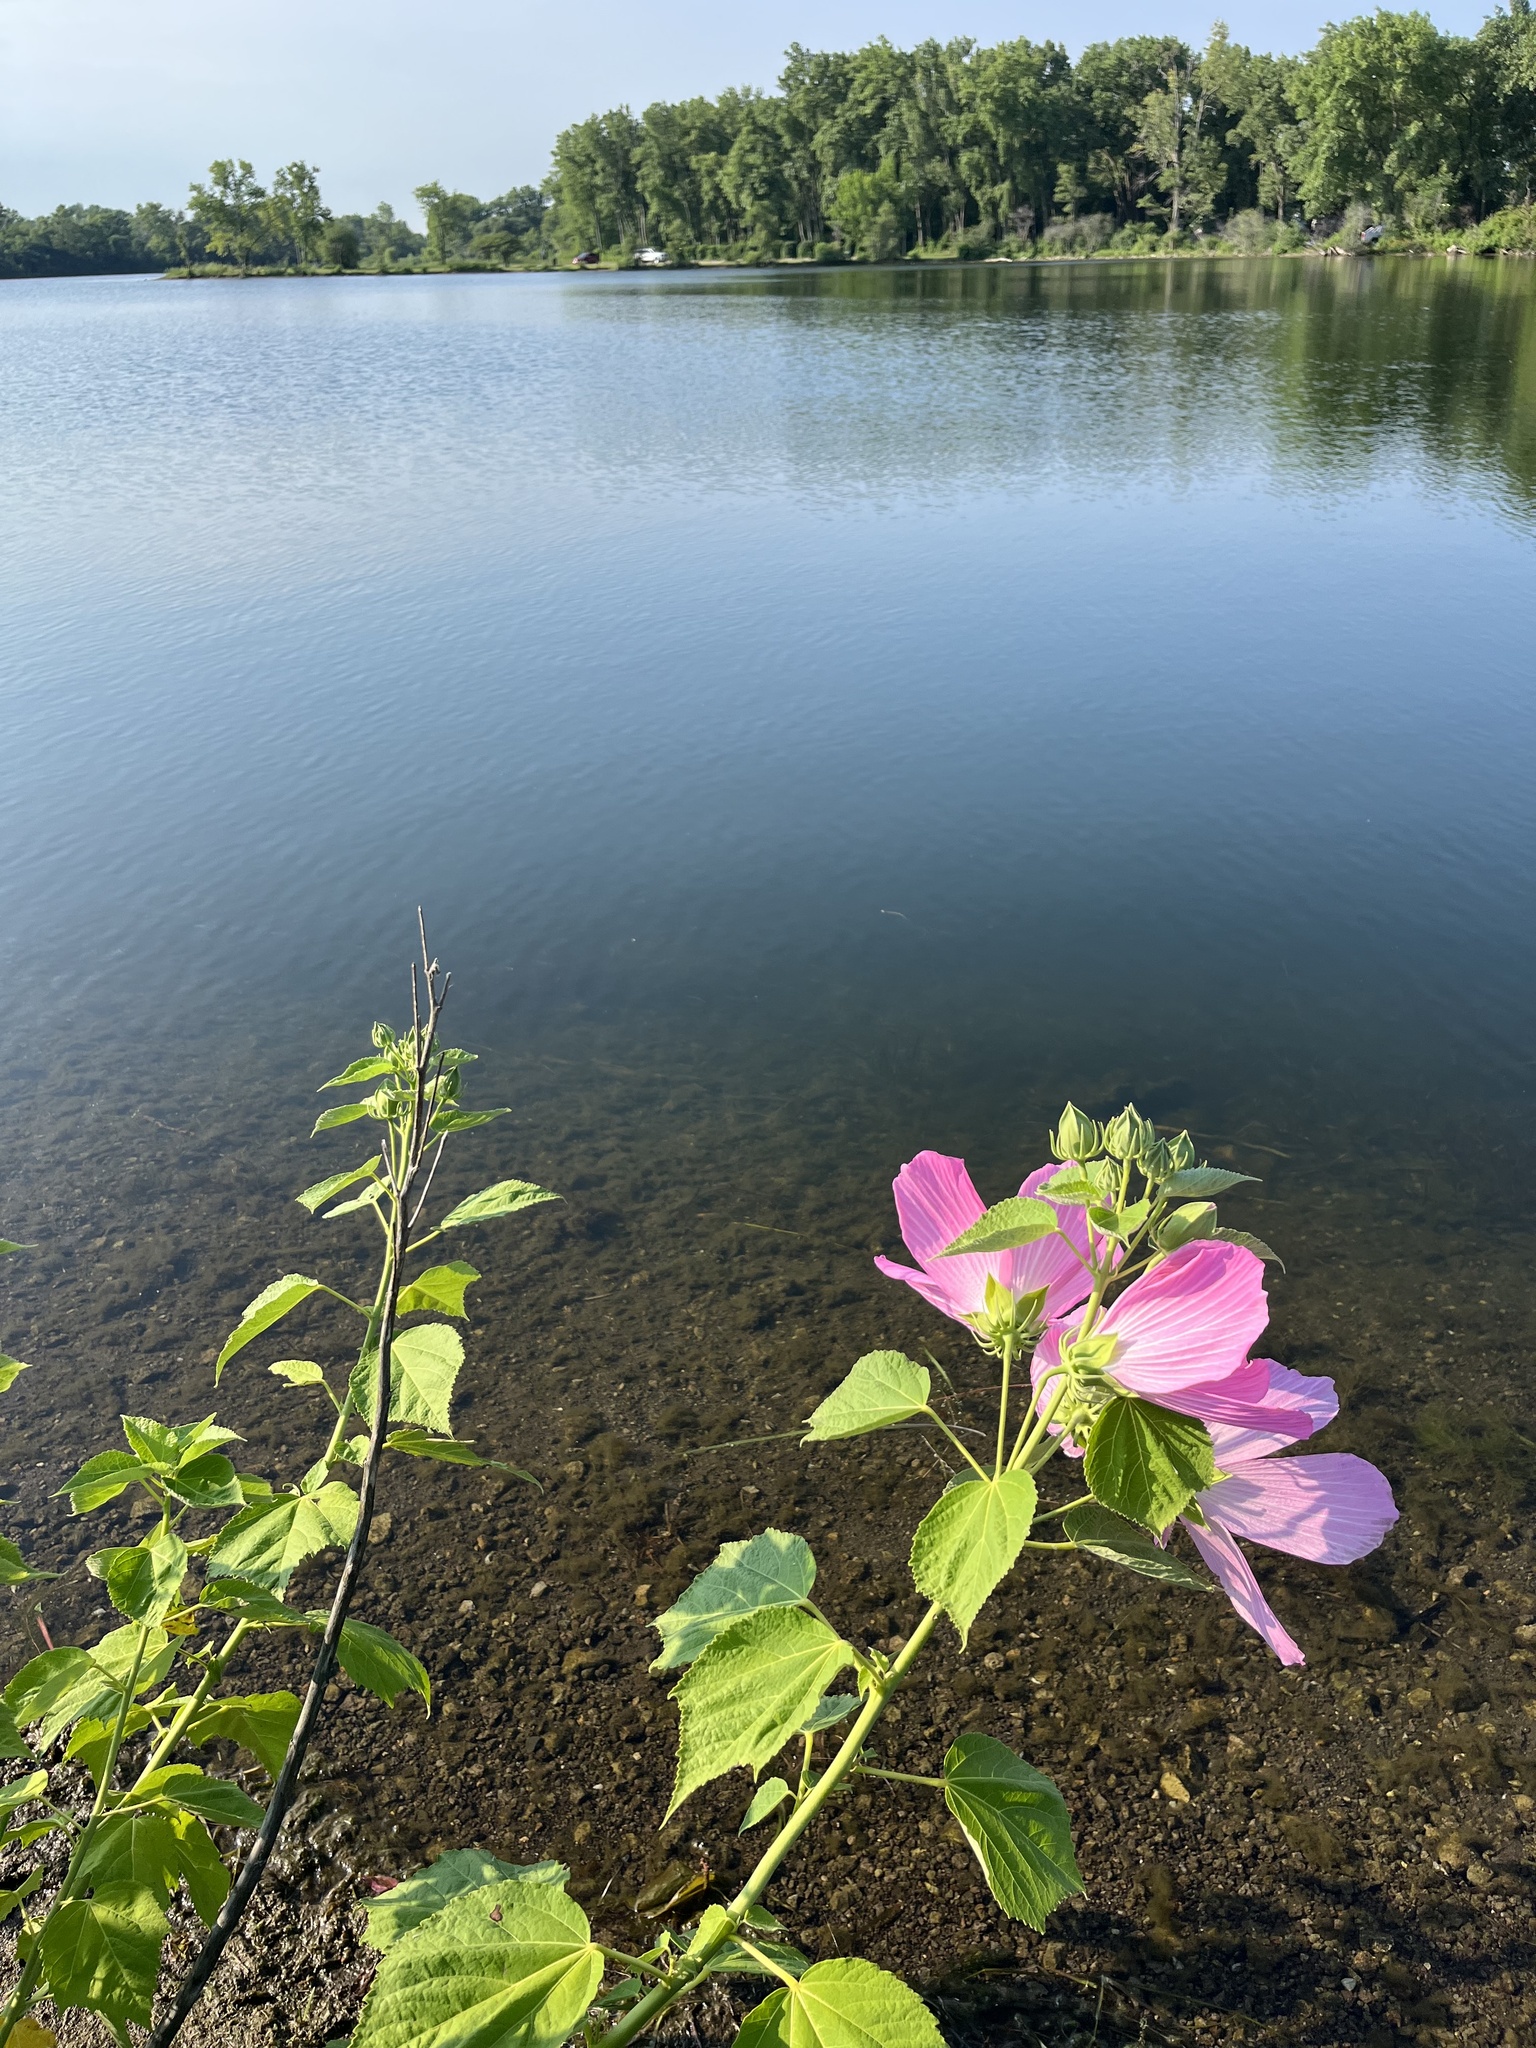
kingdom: Plantae
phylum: Tracheophyta
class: Magnoliopsida
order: Malvales
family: Malvaceae
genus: Hibiscus
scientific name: Hibiscus moscheutos
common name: Common rose-mallow
